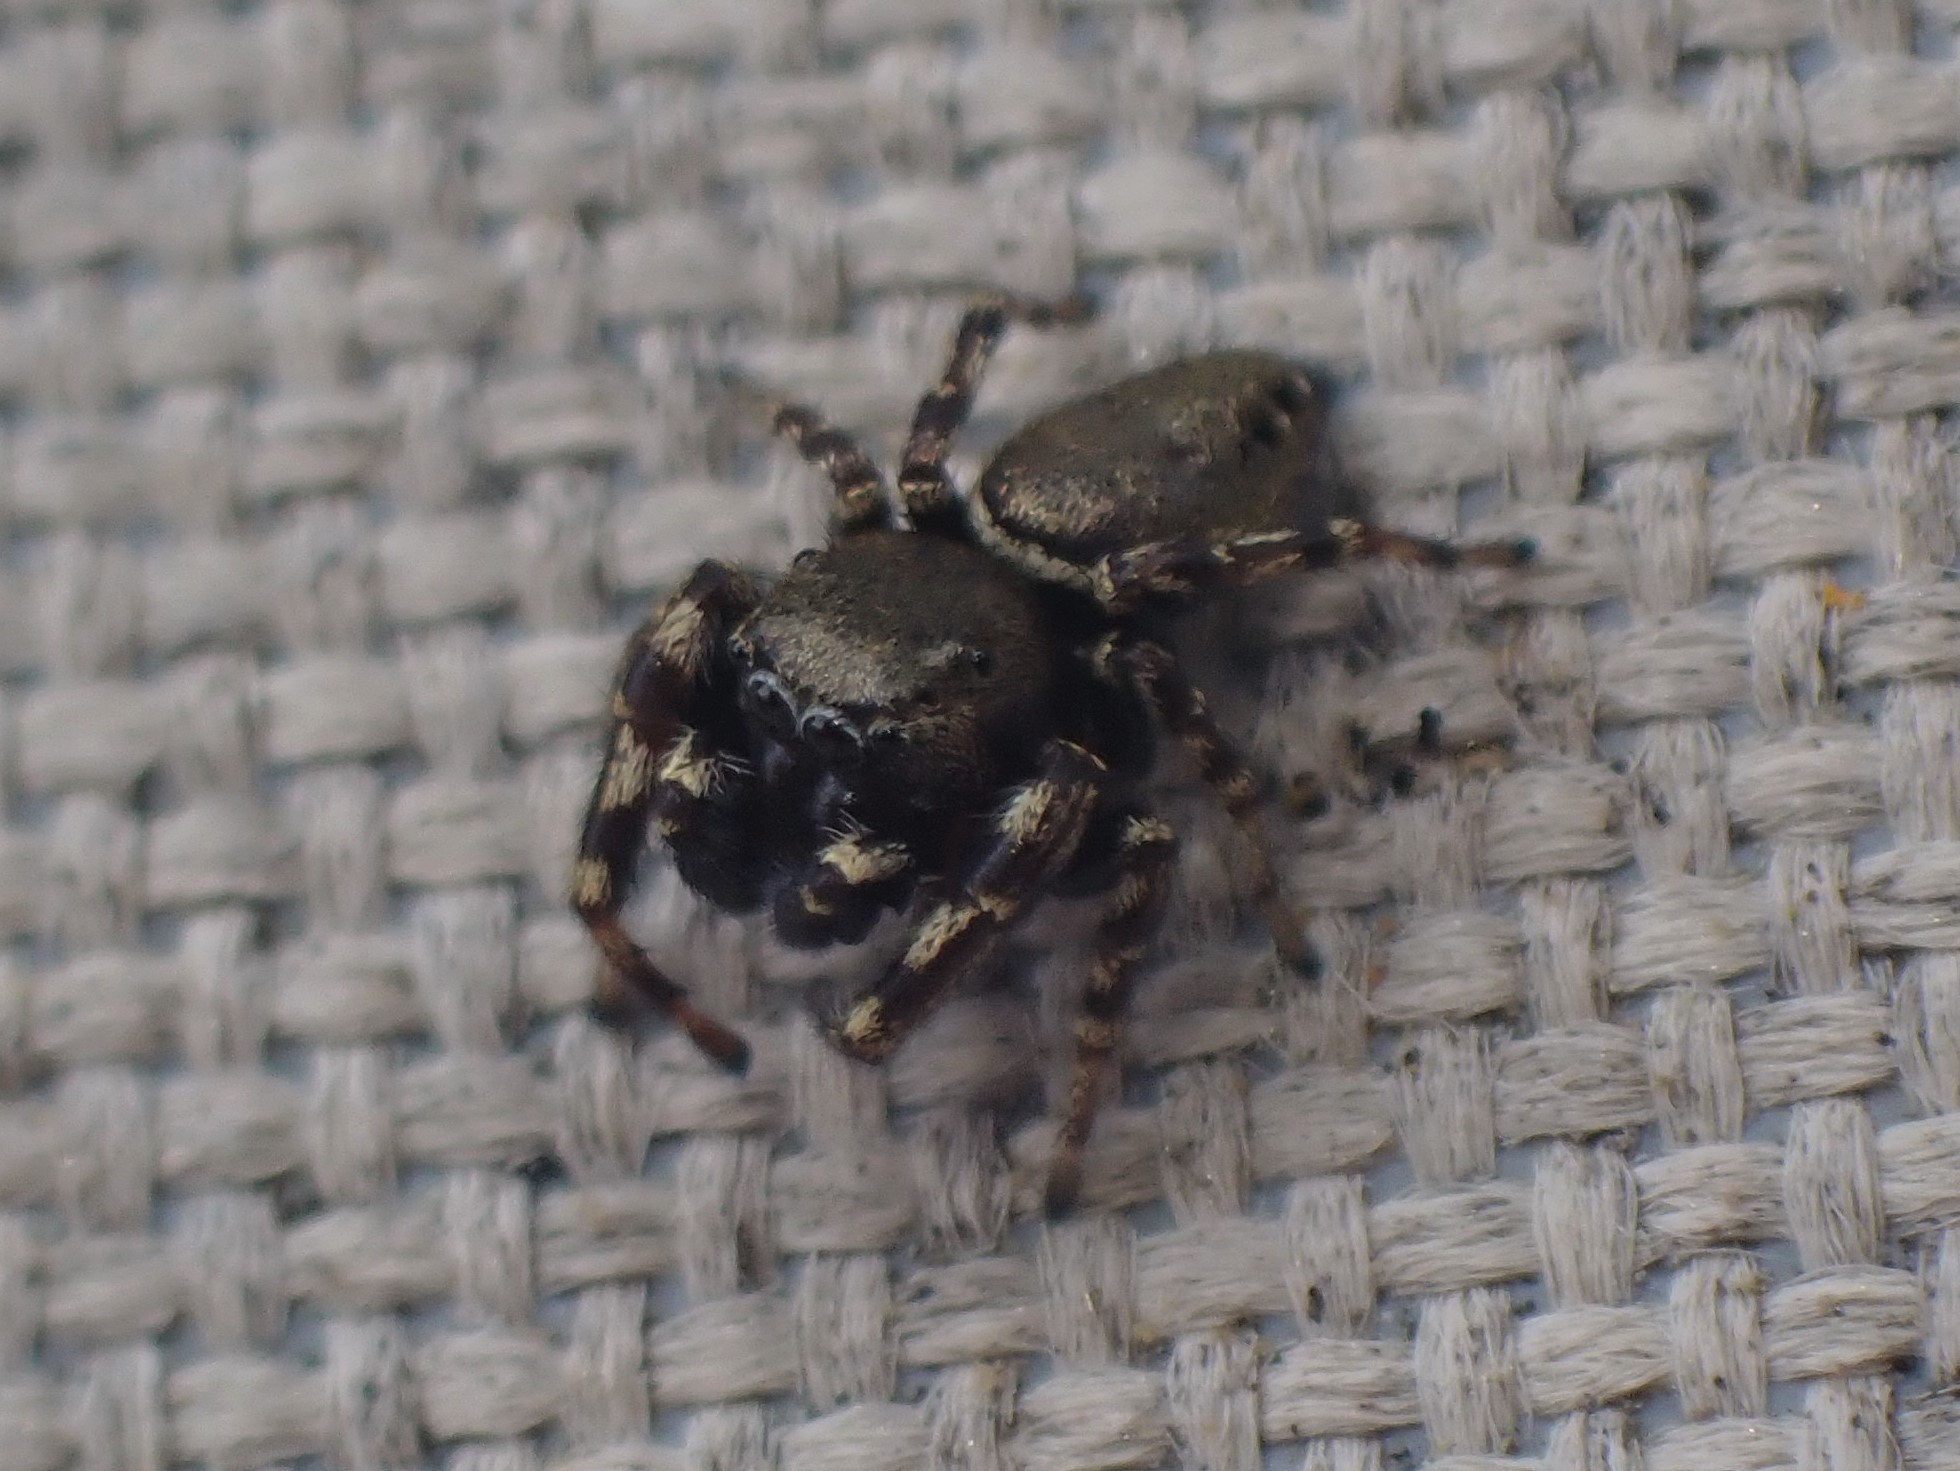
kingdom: Animalia
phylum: Arthropoda
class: Arachnida
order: Araneae
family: Salticidae
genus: Pelegrina
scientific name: Pelegrina aeneola
